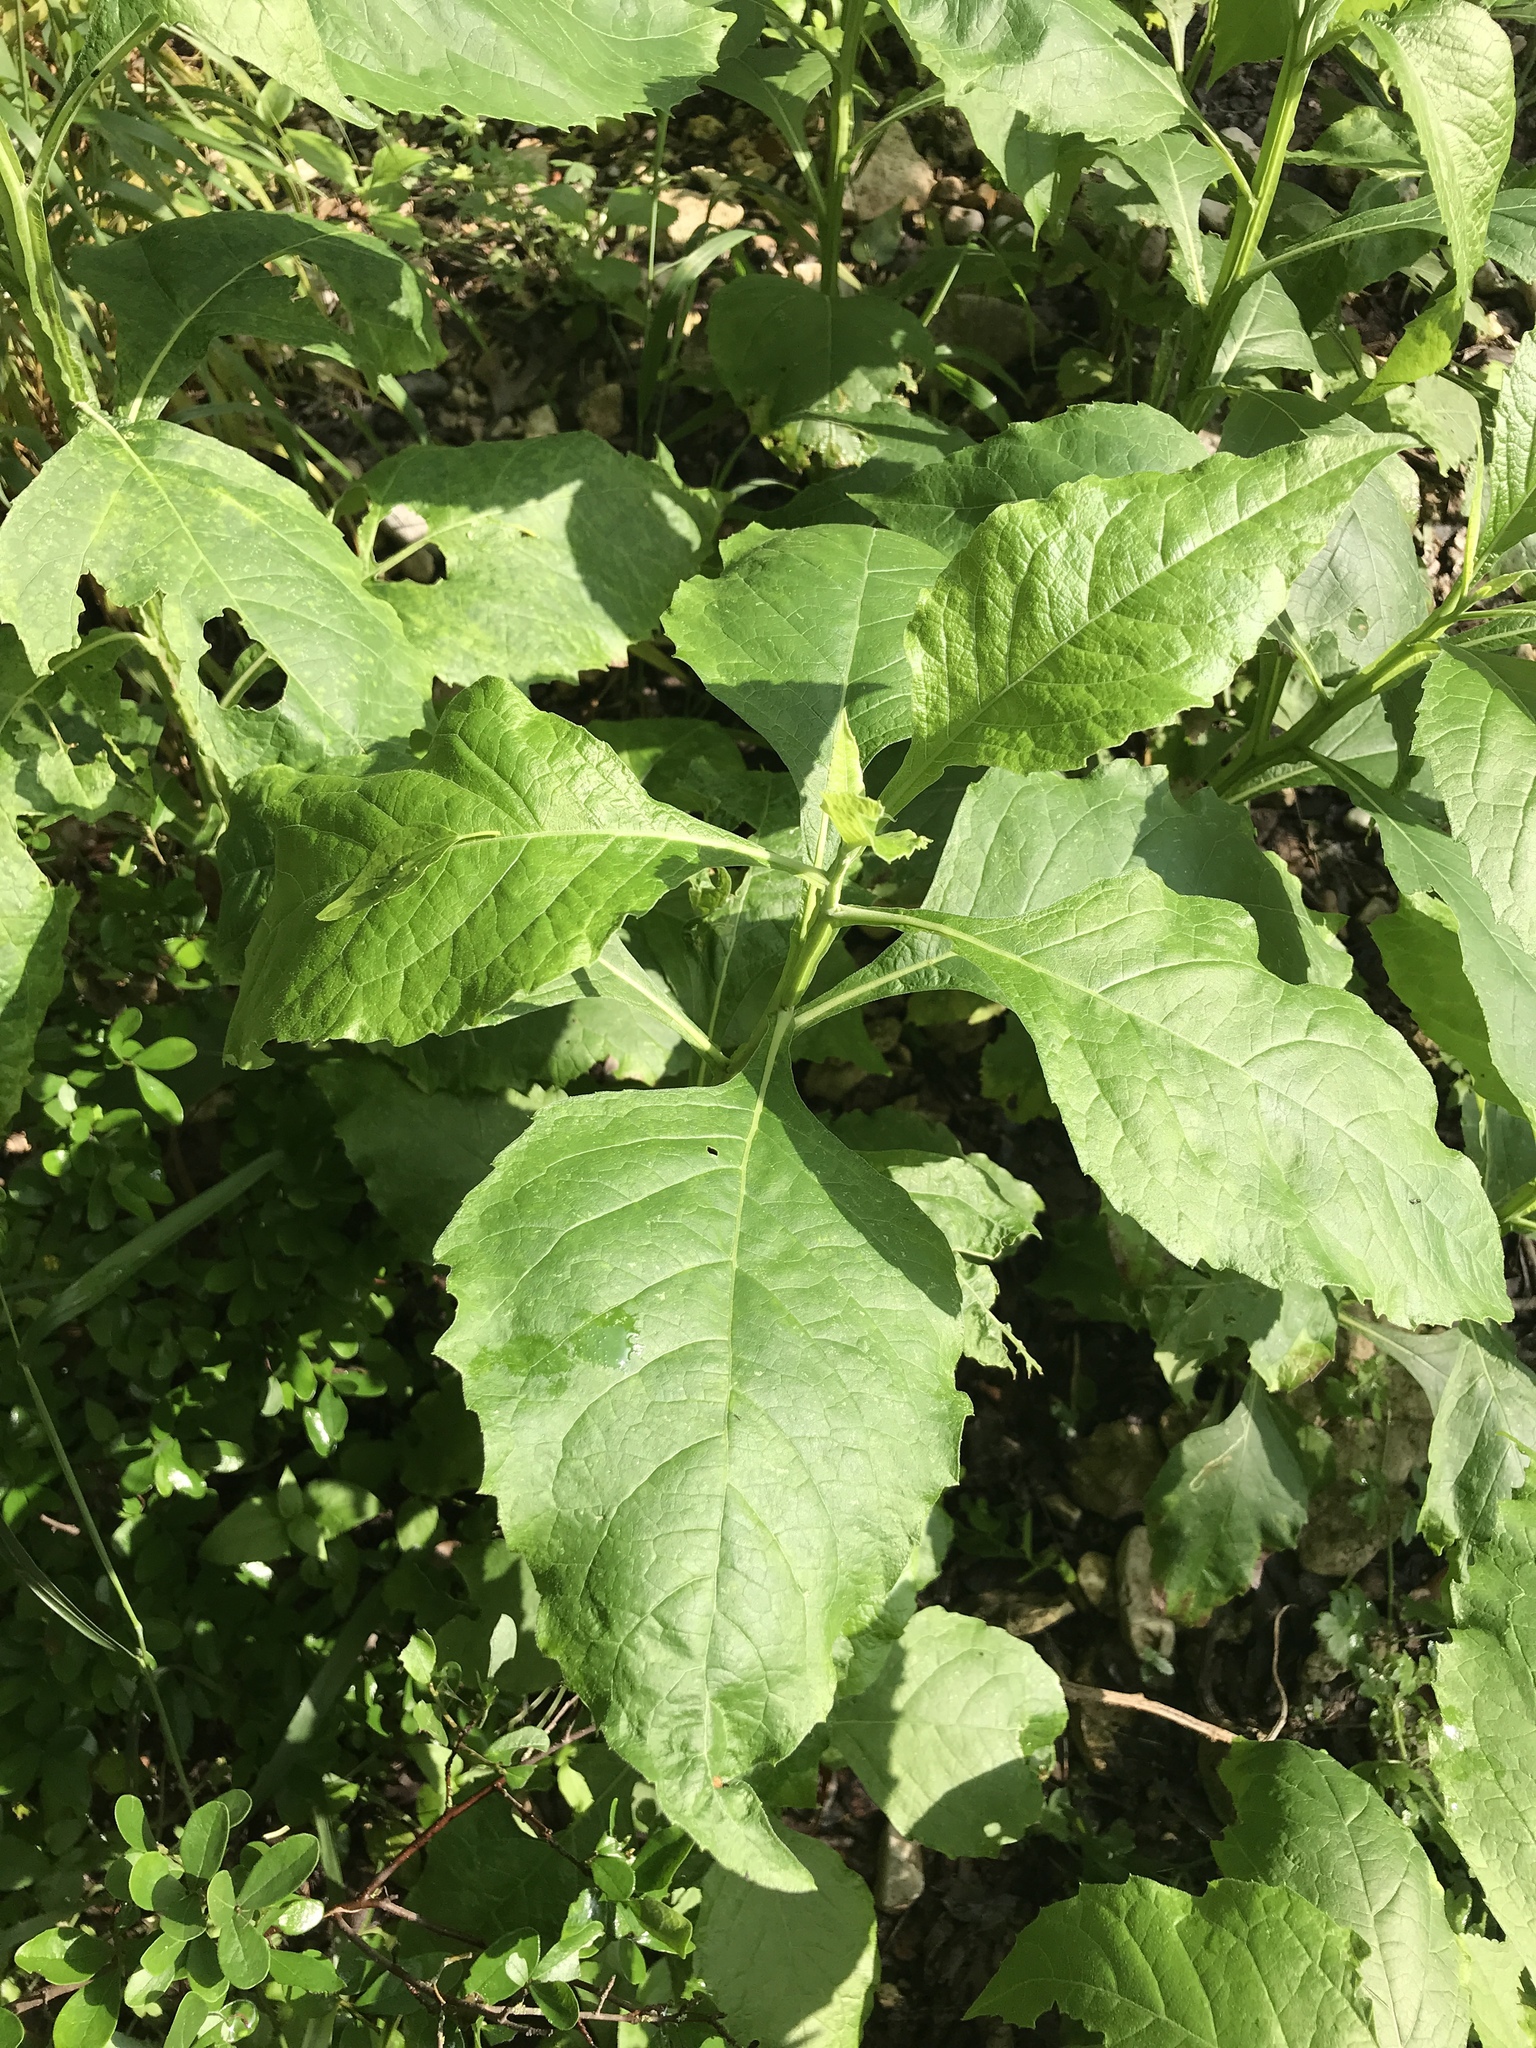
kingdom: Plantae
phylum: Tracheophyta
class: Magnoliopsida
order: Asterales
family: Asteraceae
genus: Verbesina
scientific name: Verbesina virginica
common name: Frostweed
